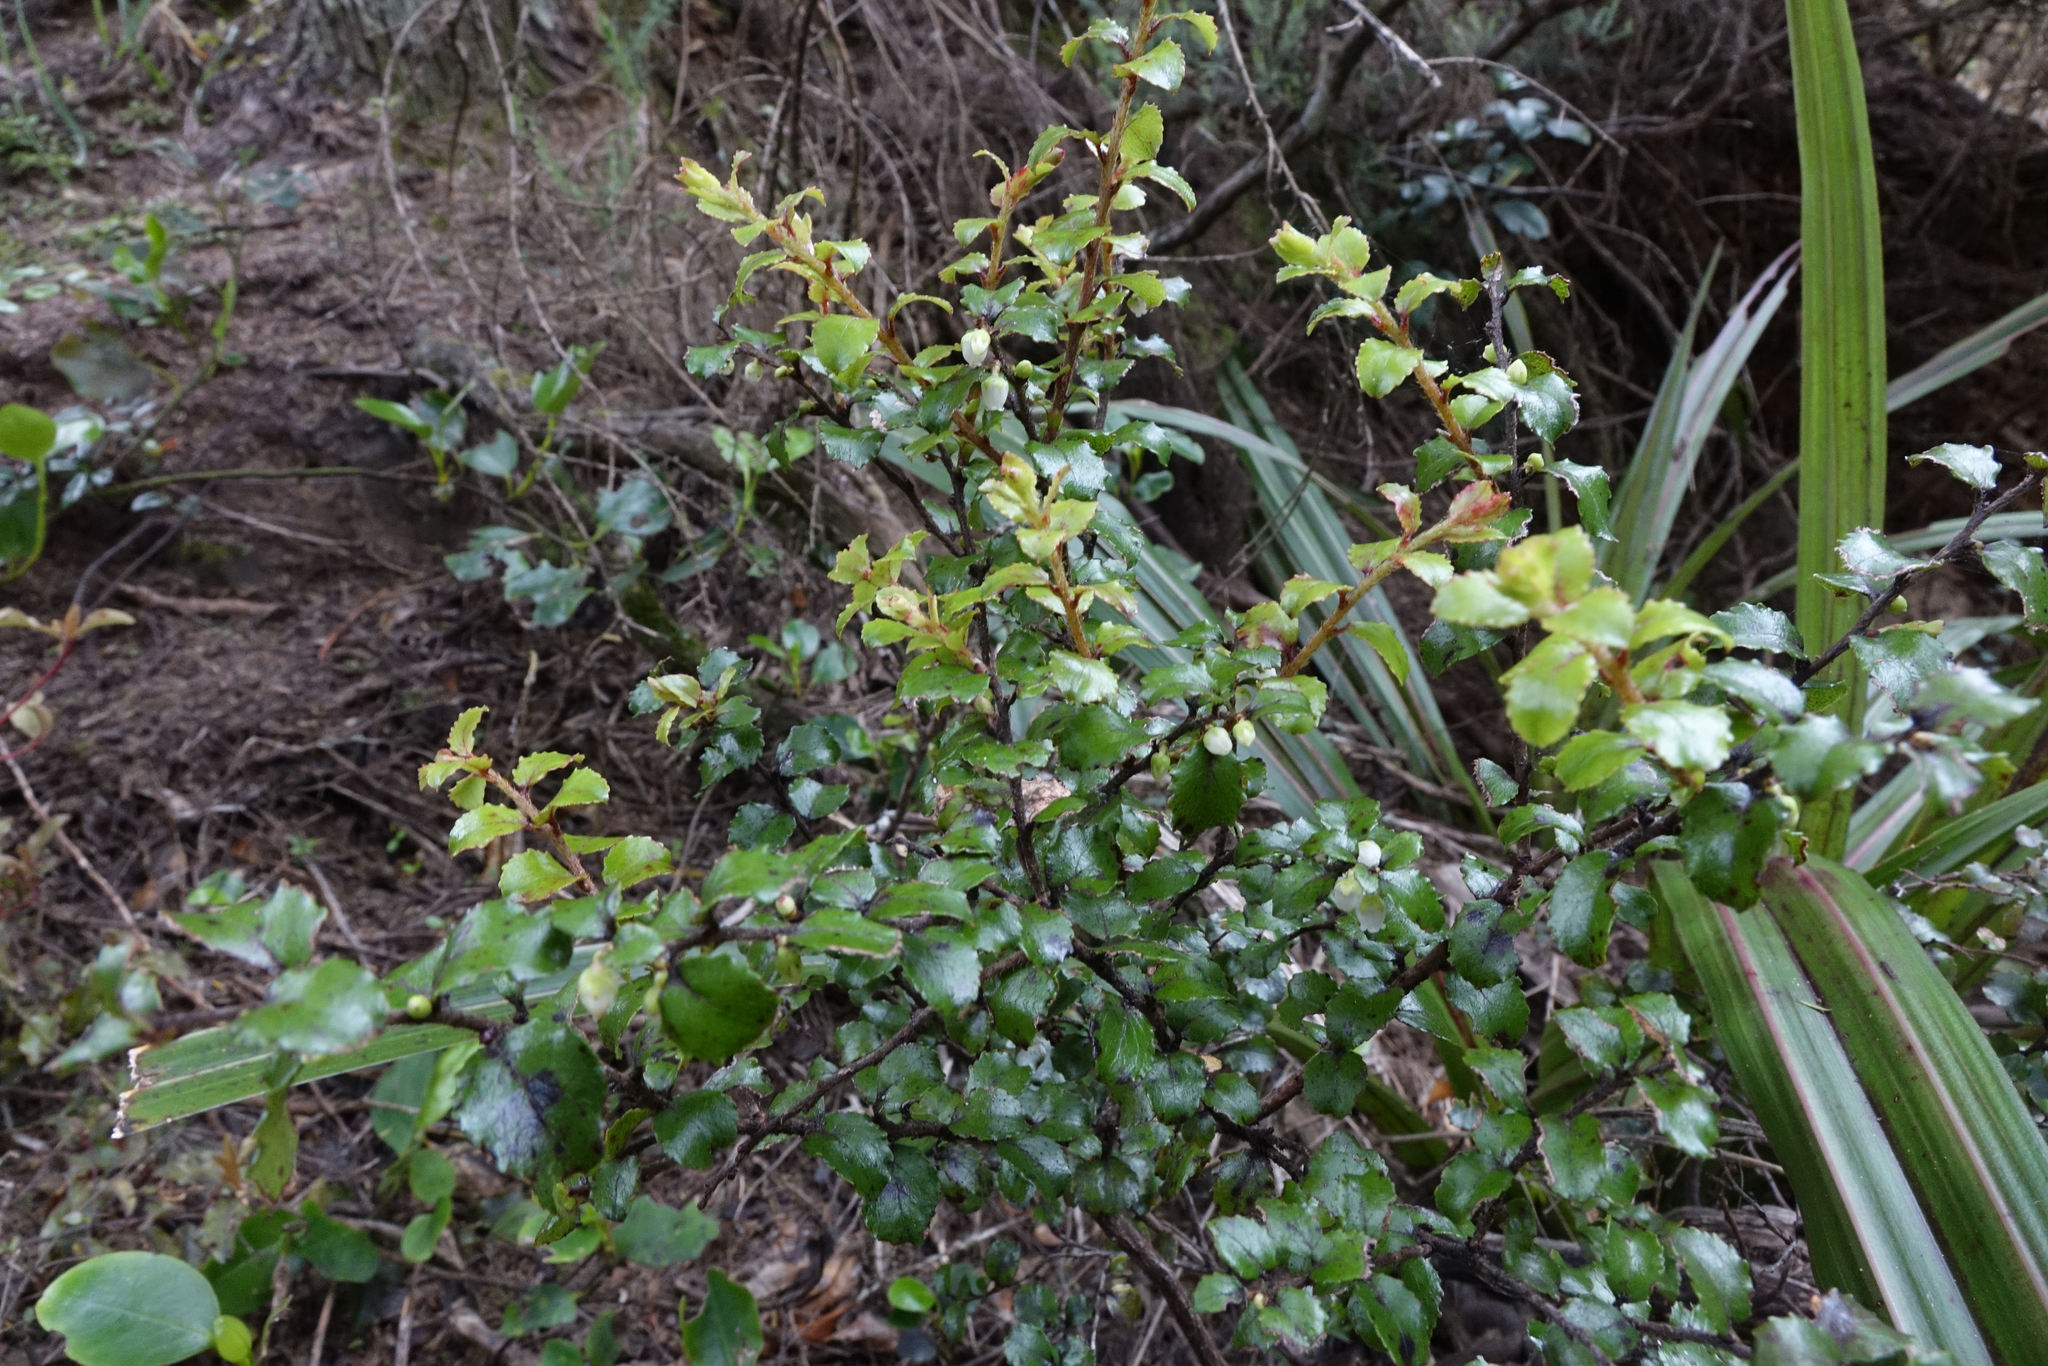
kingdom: Plantae
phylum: Tracheophyta
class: Magnoliopsida
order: Ericales
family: Ericaceae
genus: Gaultheria
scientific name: Gaultheria antipoda
